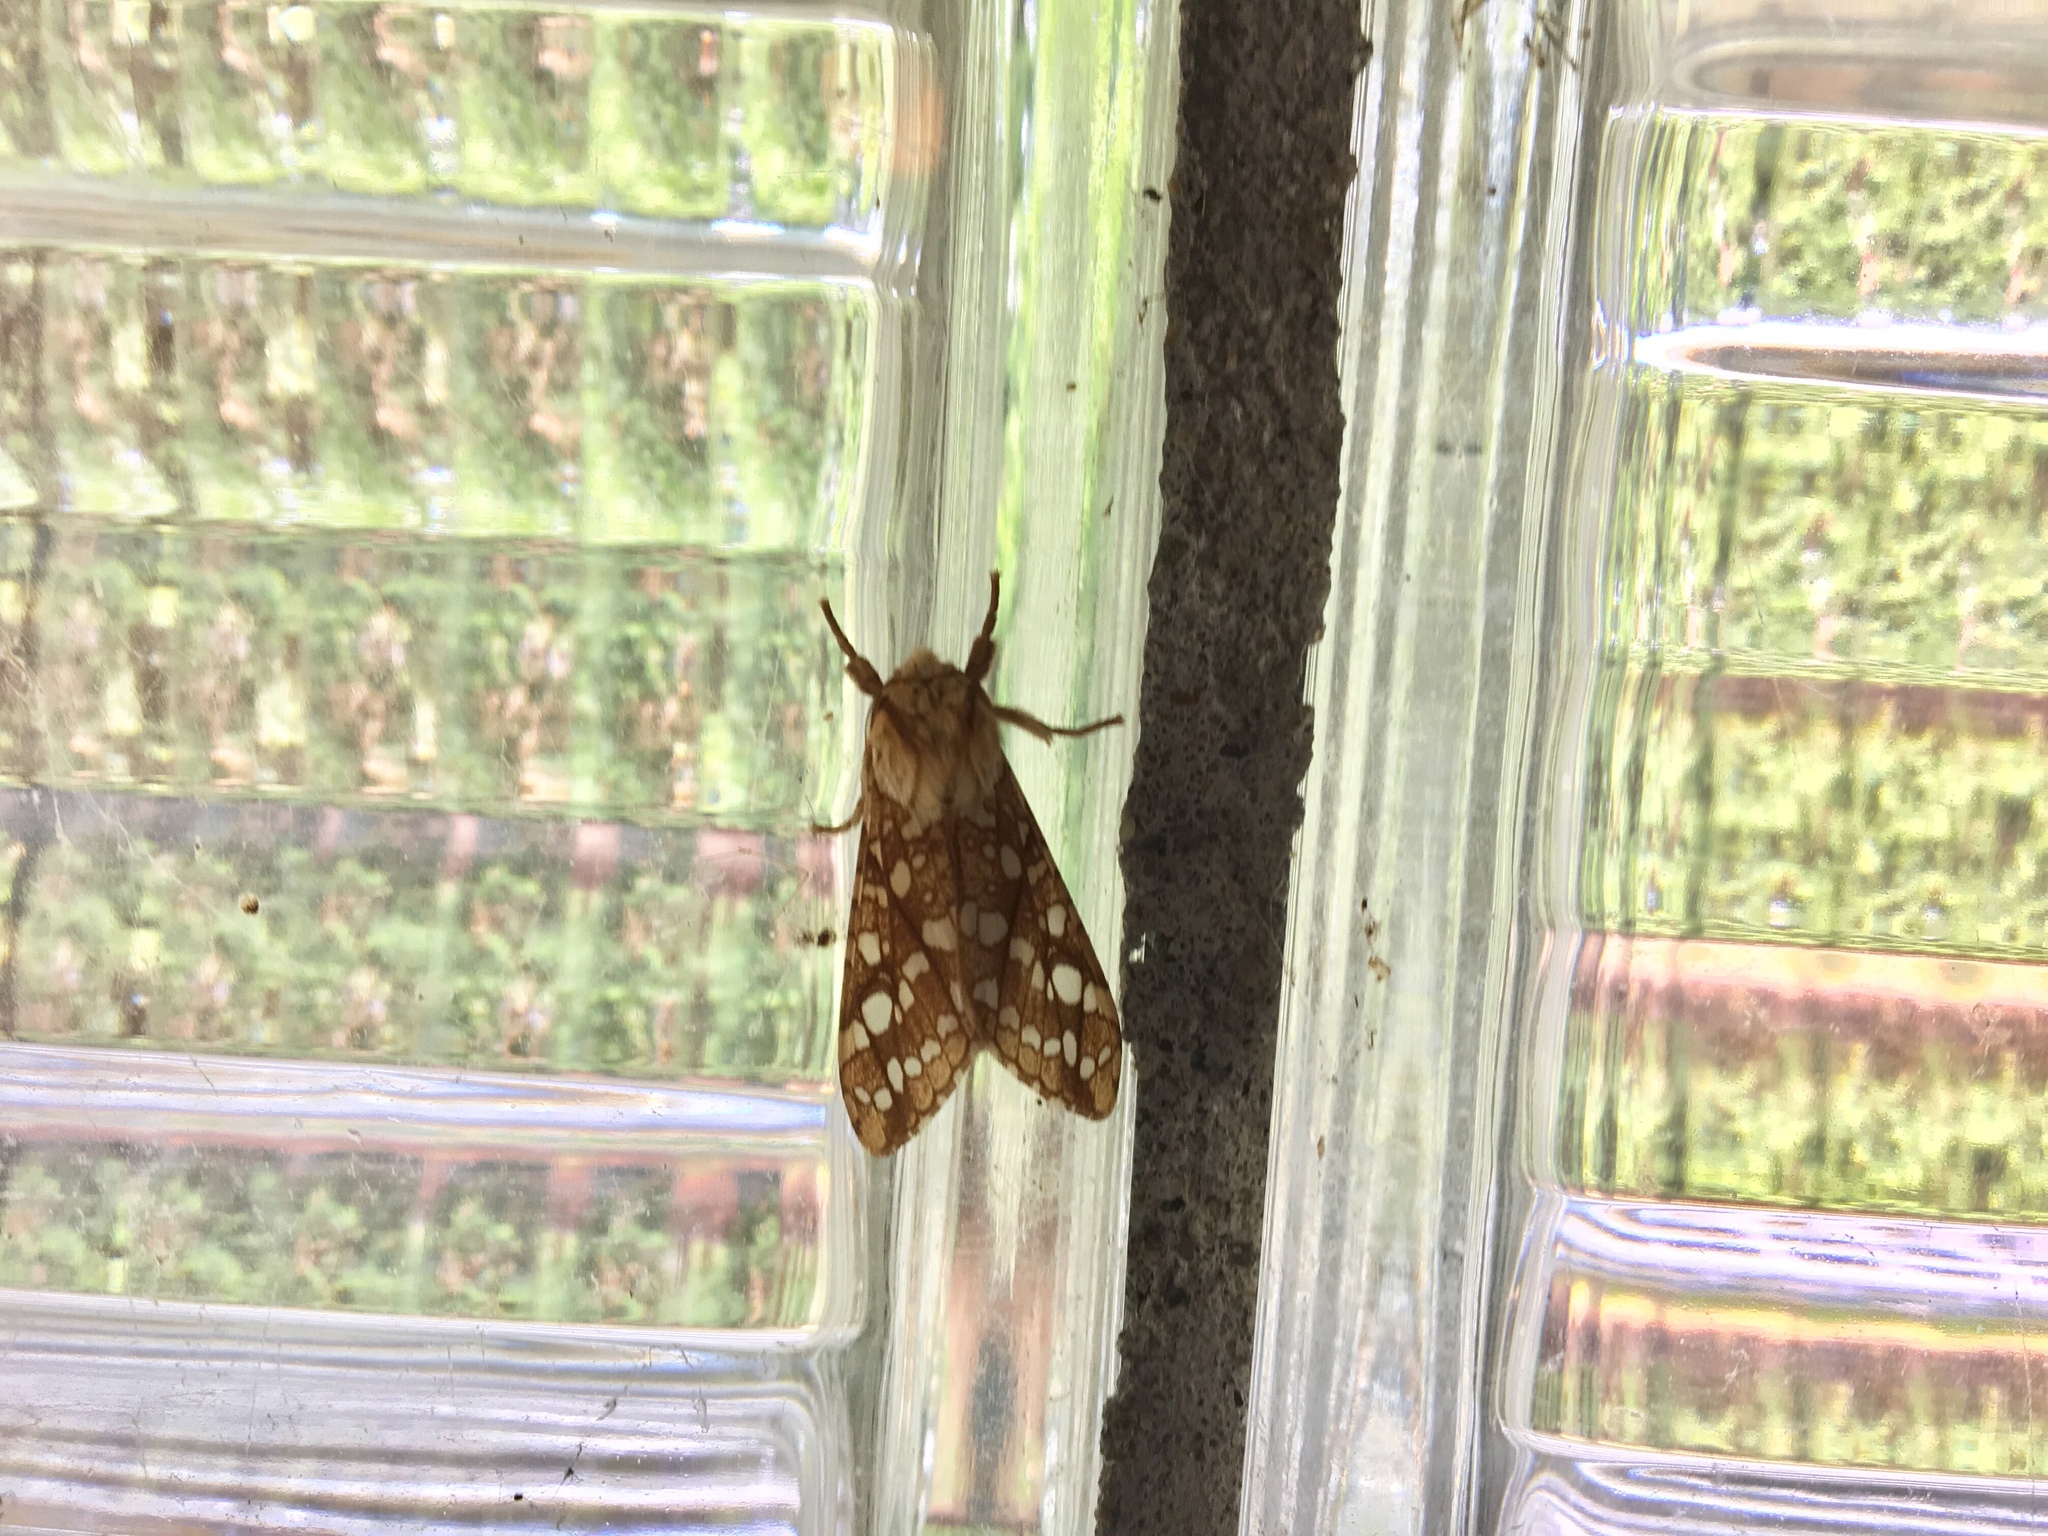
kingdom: Animalia
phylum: Arthropoda
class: Insecta
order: Lepidoptera
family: Erebidae
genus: Lophocampa
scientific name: Lophocampa caryae
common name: Hickory tussock moth
